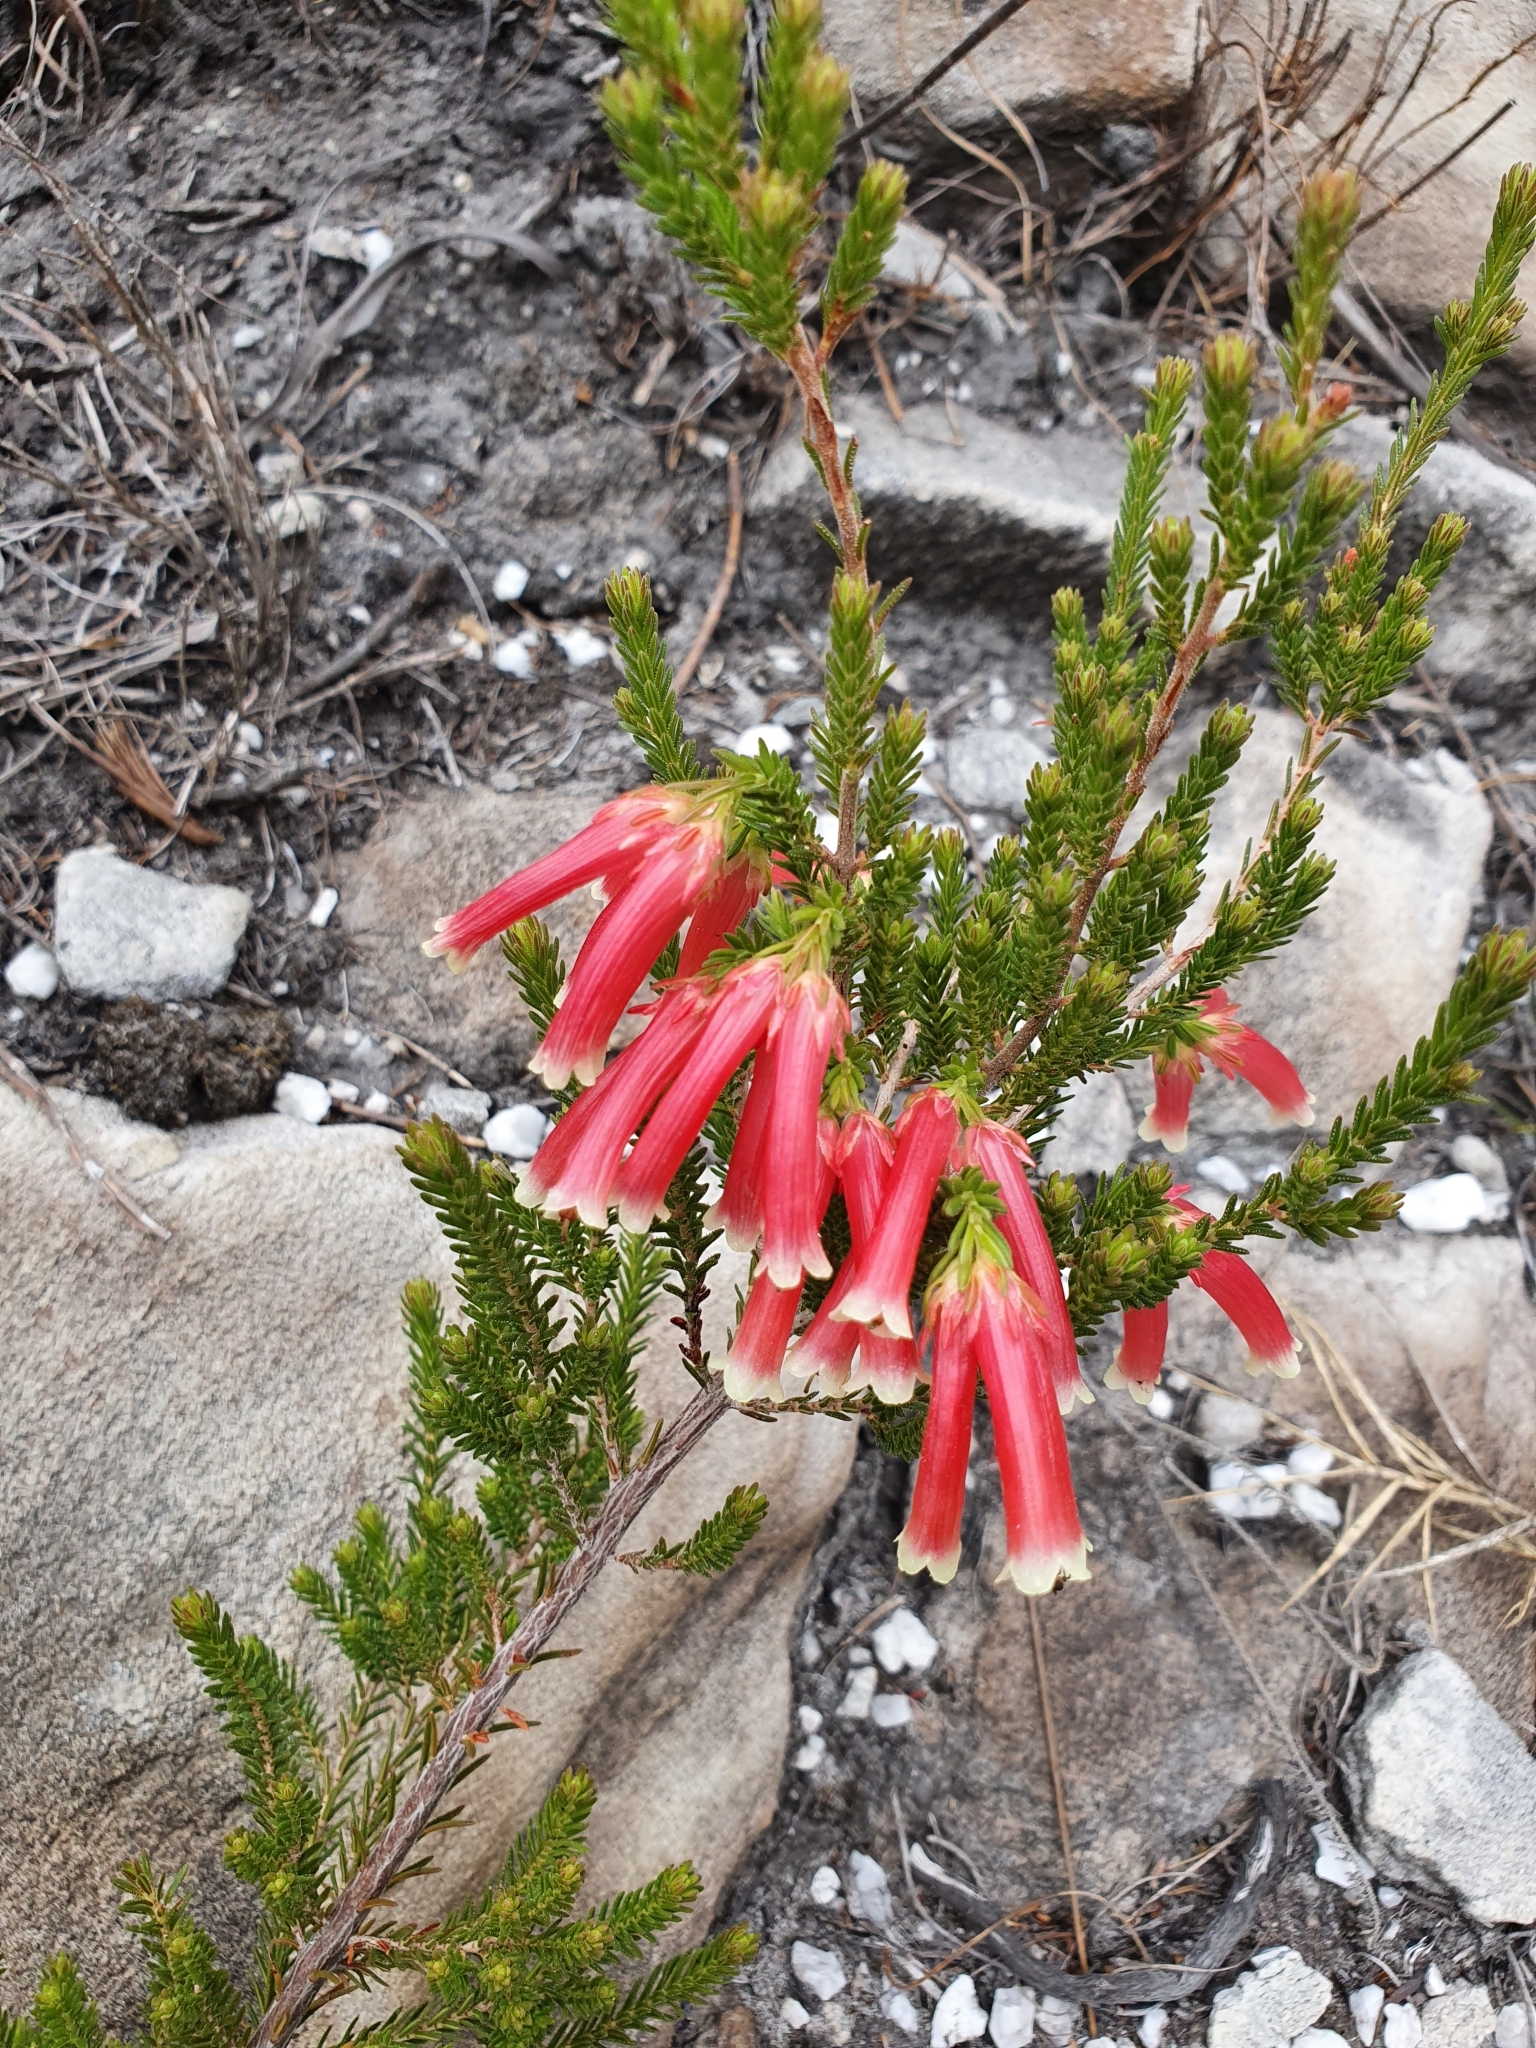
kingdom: Plantae
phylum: Tracheophyta
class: Magnoliopsida
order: Ericales
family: Ericaceae
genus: Erica
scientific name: Erica versicolor
